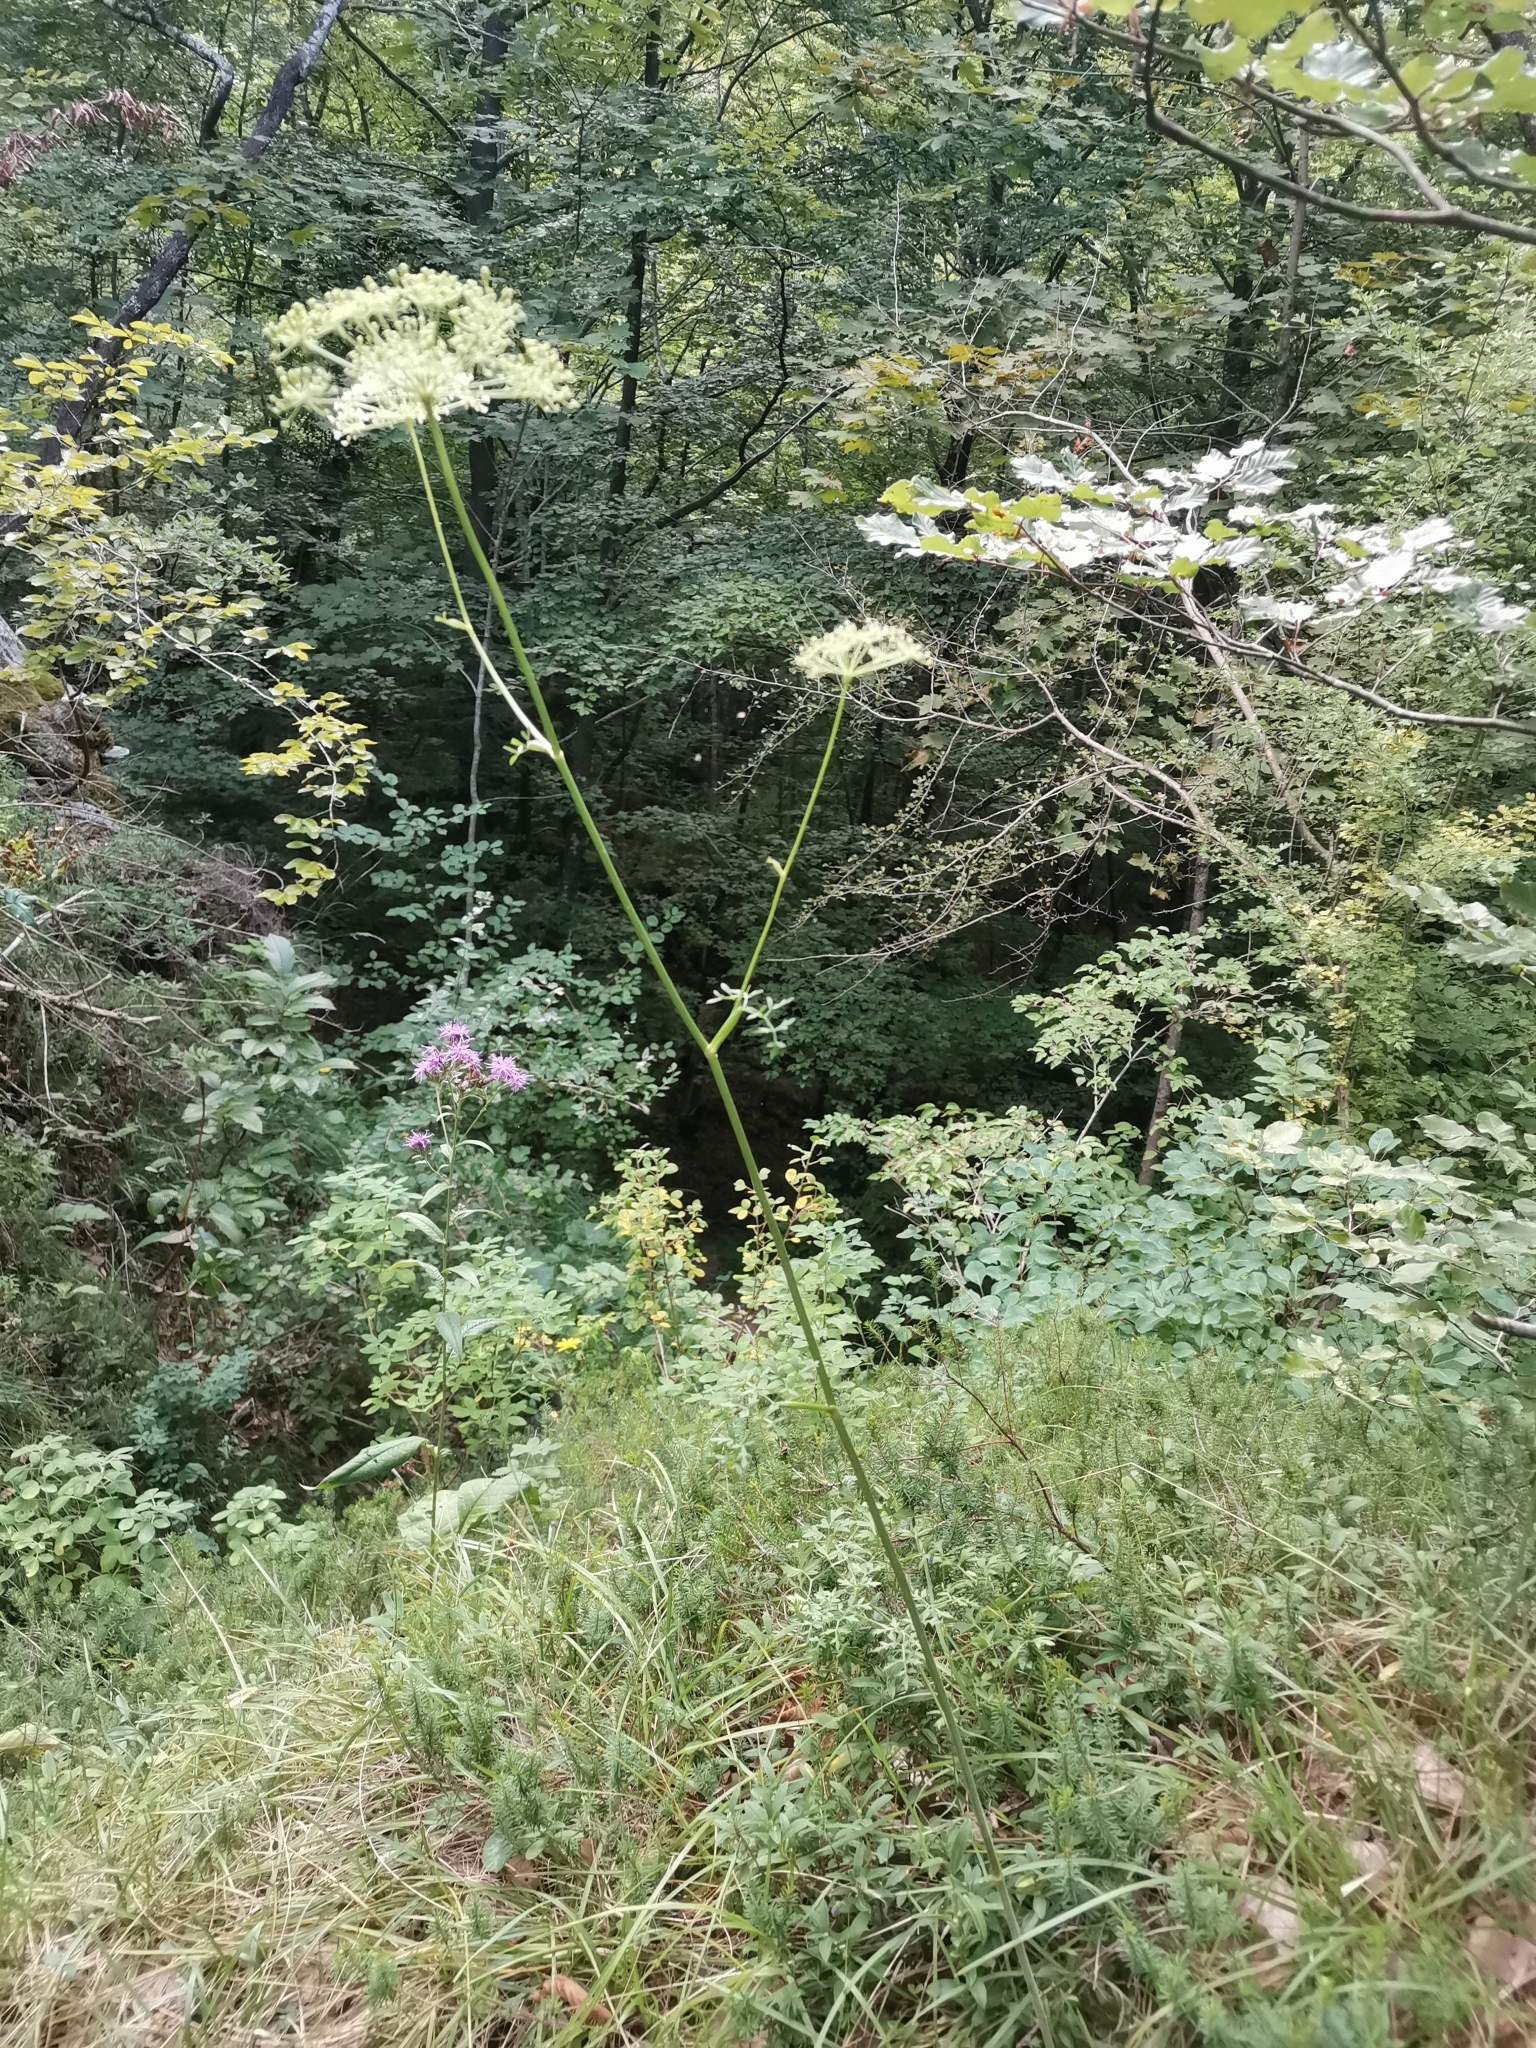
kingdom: Plantae
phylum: Tracheophyta
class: Magnoliopsida
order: Apiales
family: Apiaceae
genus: Oreoselinum
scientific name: Oreoselinum nigrum
